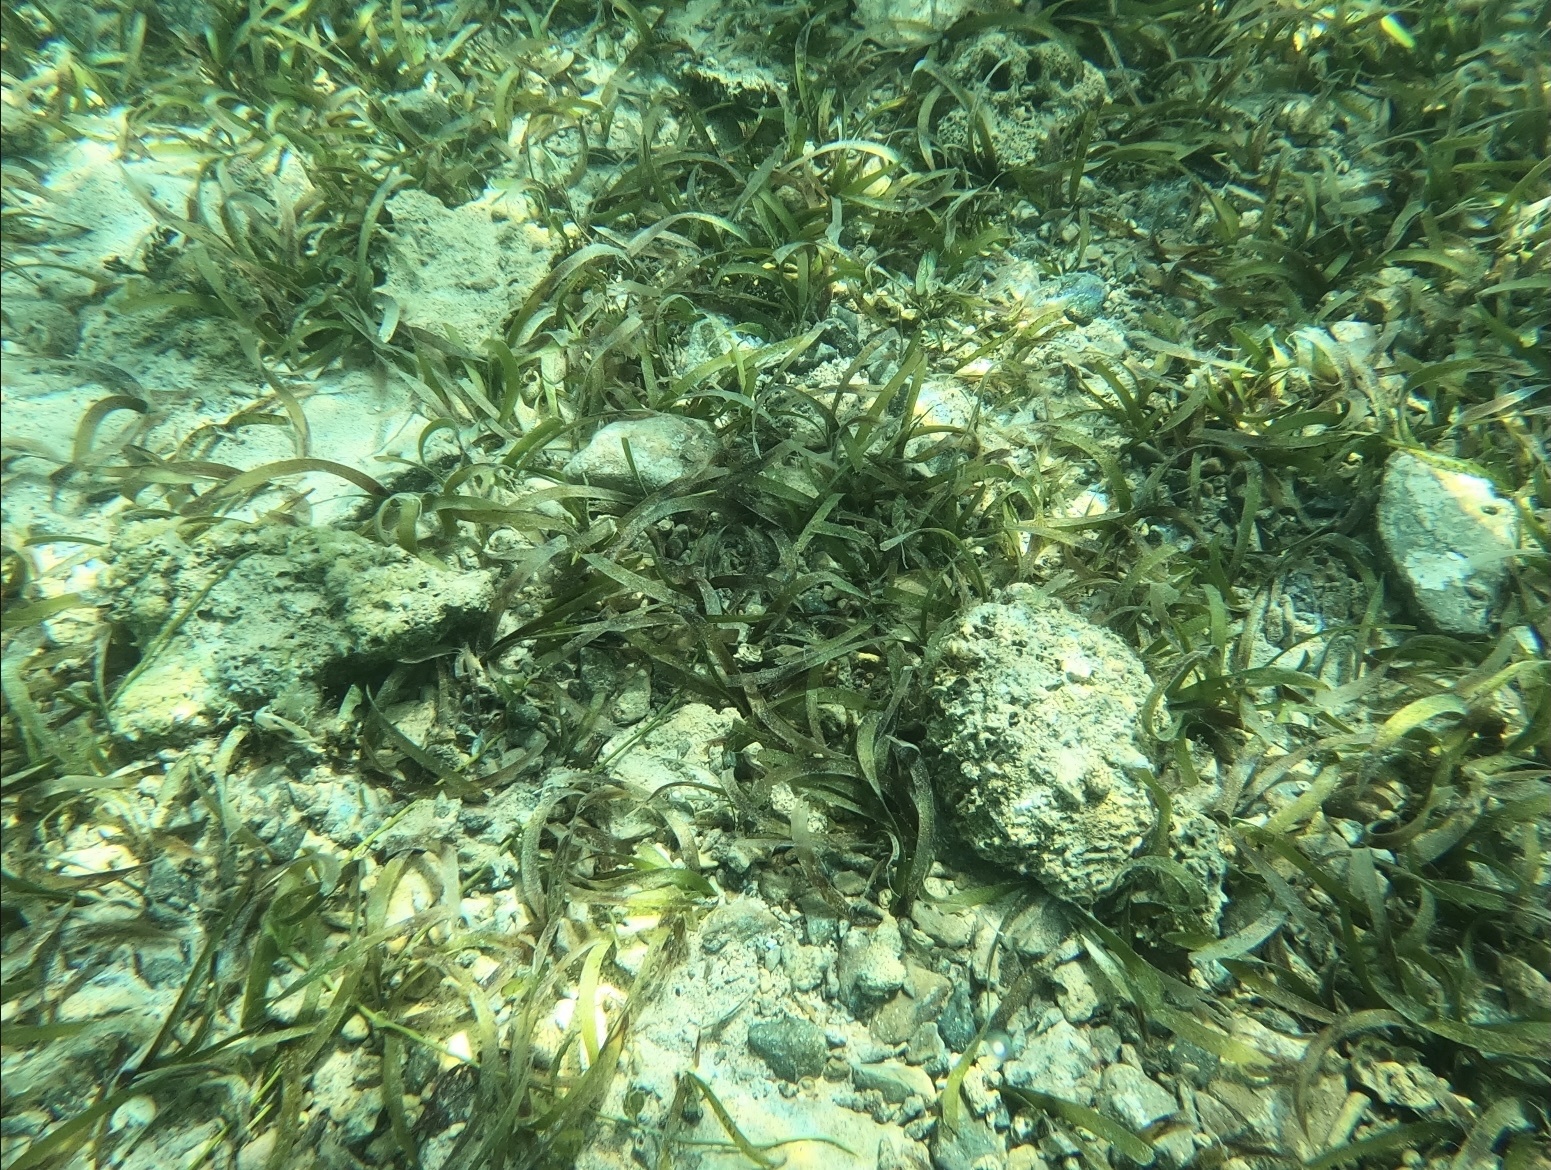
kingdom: Plantae
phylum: Tracheophyta
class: Liliopsida
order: Alismatales
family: Hydrocharitaceae
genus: Thalassia
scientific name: Thalassia testudinum
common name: Species code: tt
